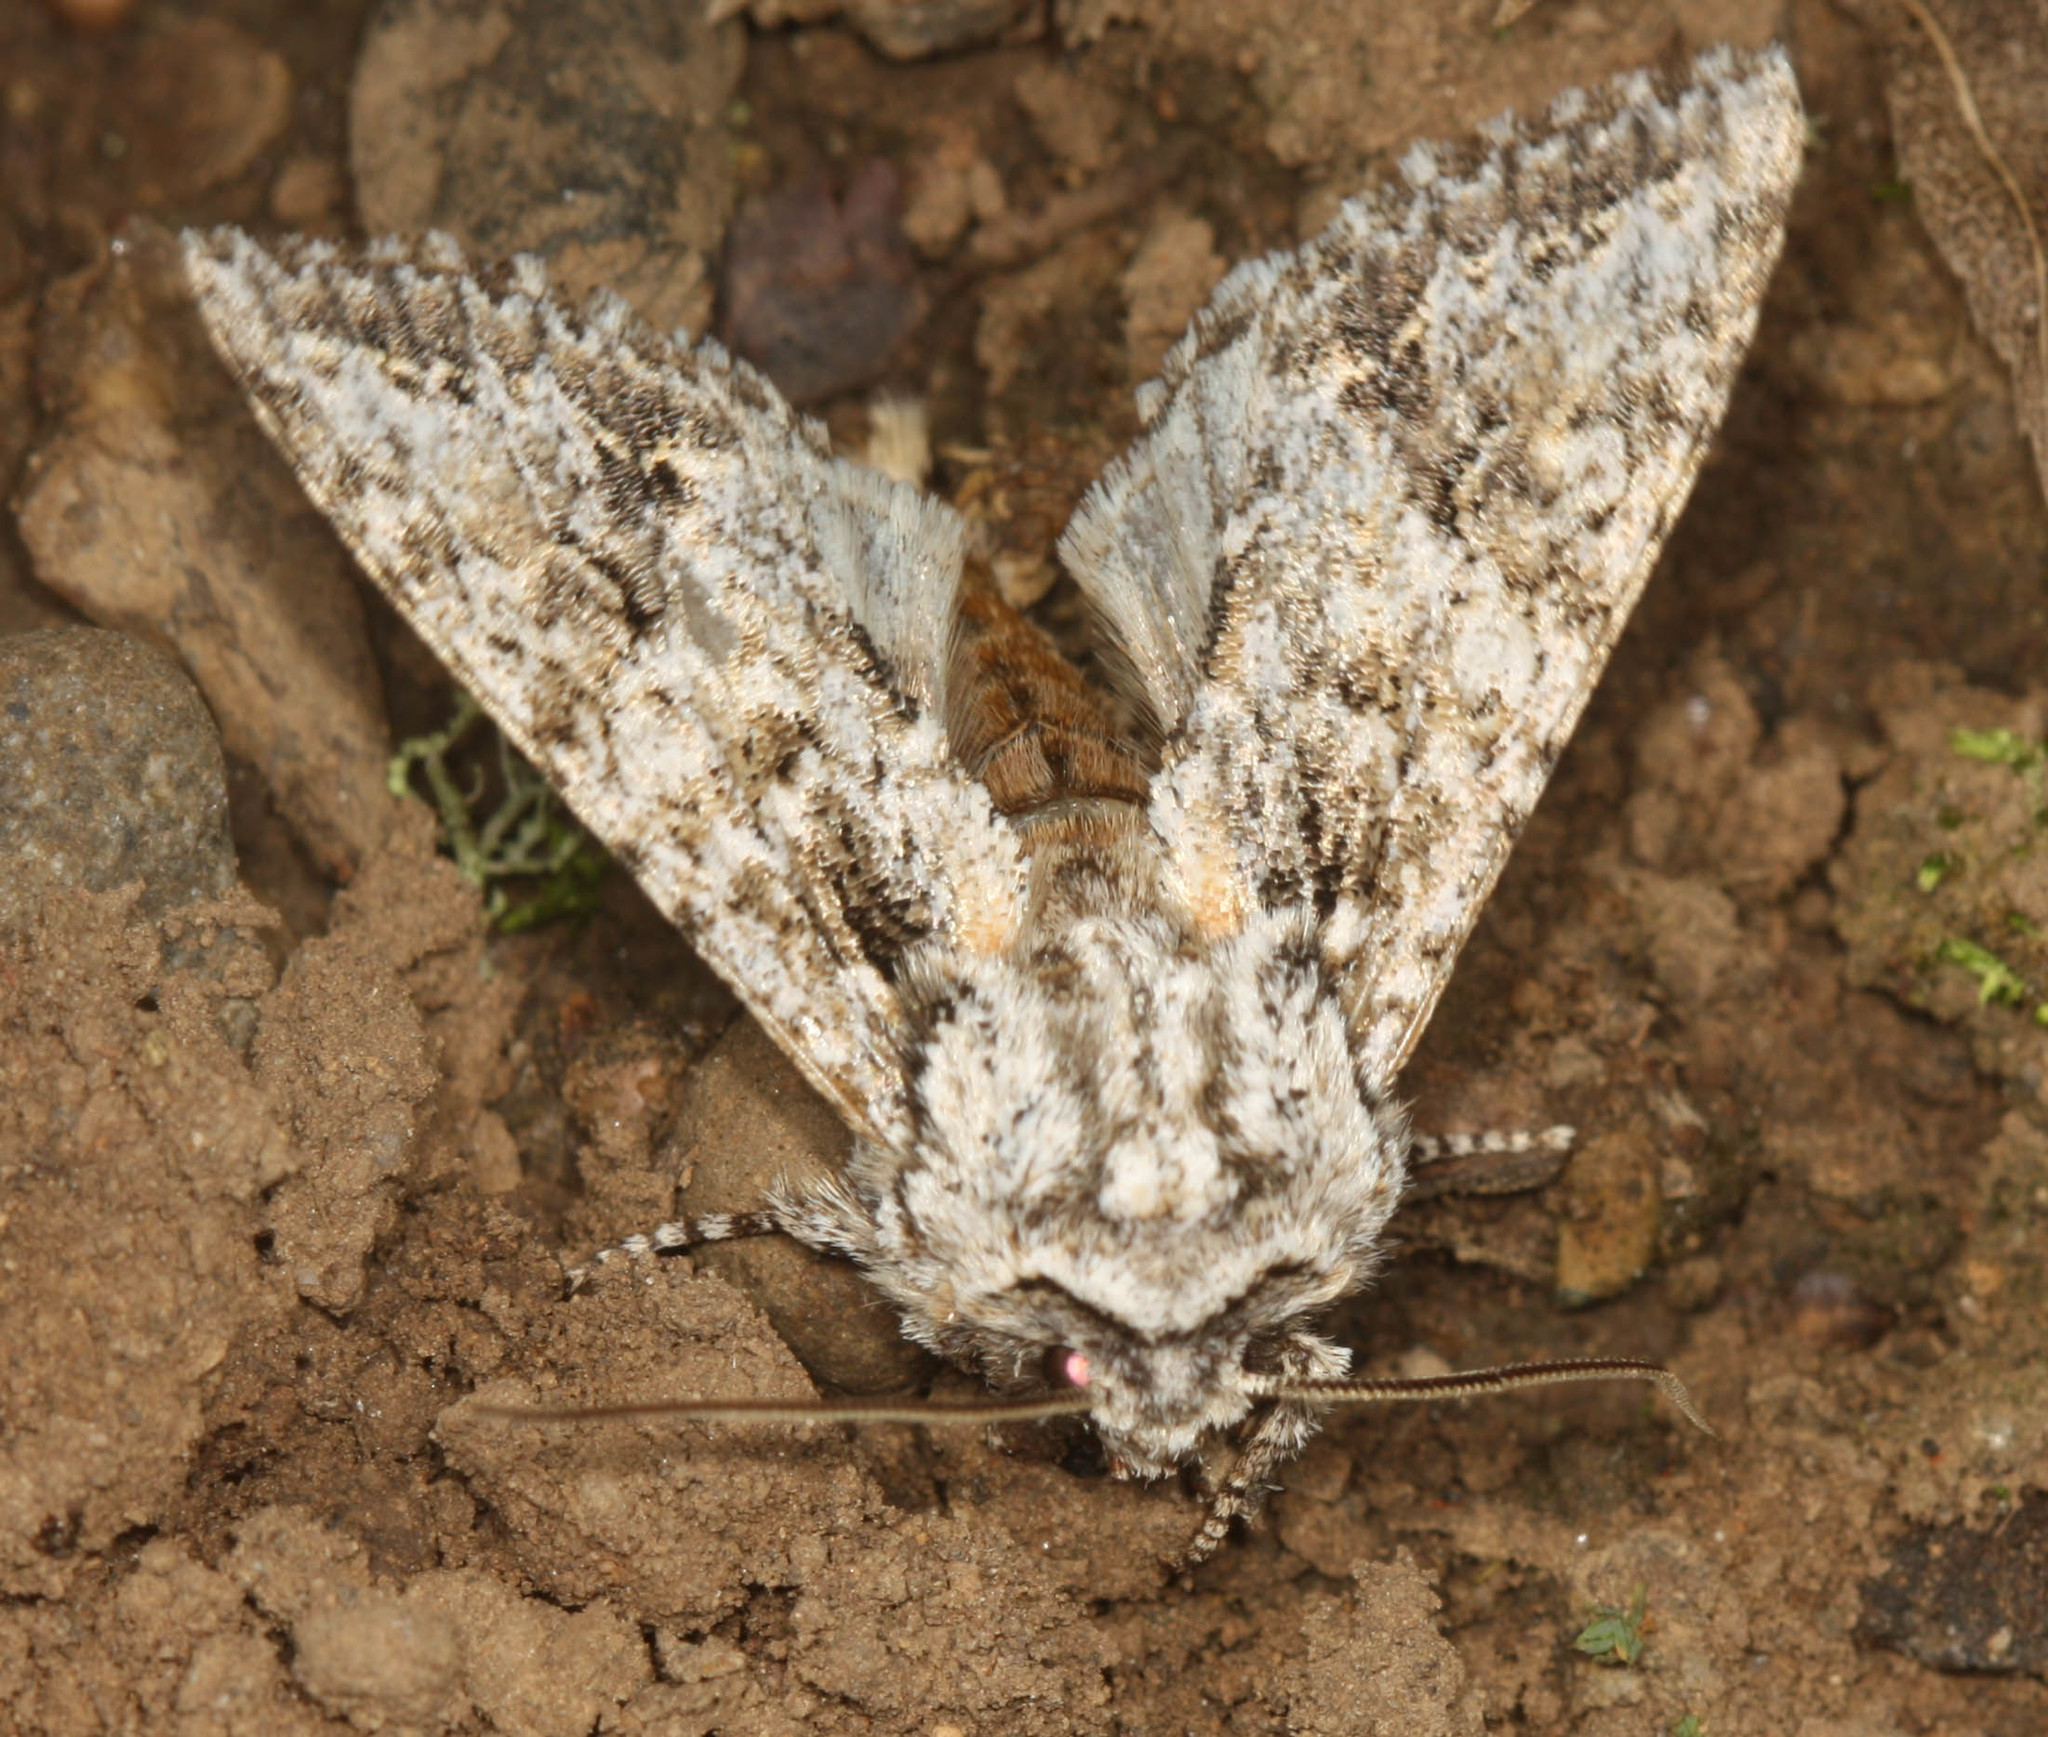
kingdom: Animalia
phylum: Arthropoda
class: Insecta
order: Lepidoptera
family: Noctuidae
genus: Egira
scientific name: Egira cognata
